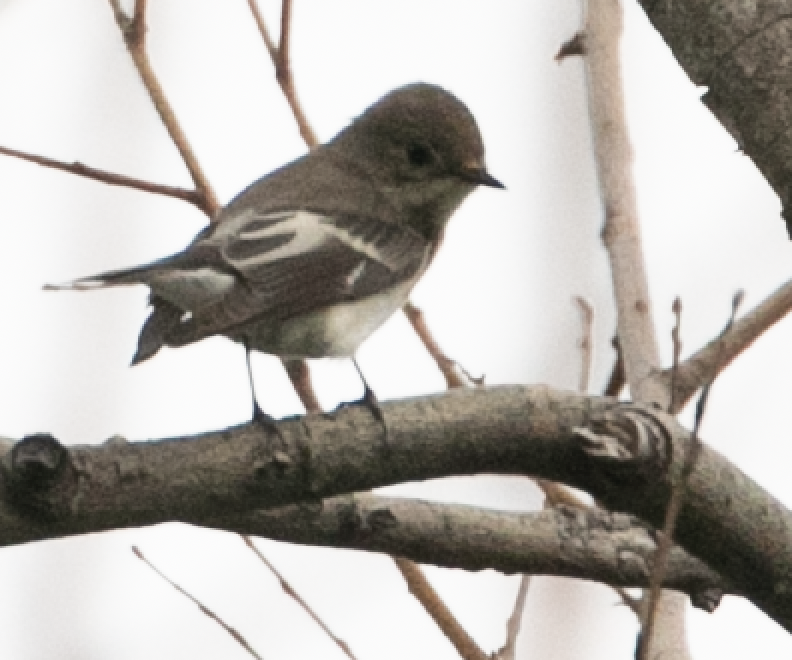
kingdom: Animalia
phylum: Chordata
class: Aves
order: Passeriformes
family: Muscicapidae
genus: Ficedula
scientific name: Ficedula hypoleuca
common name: European pied flycatcher
